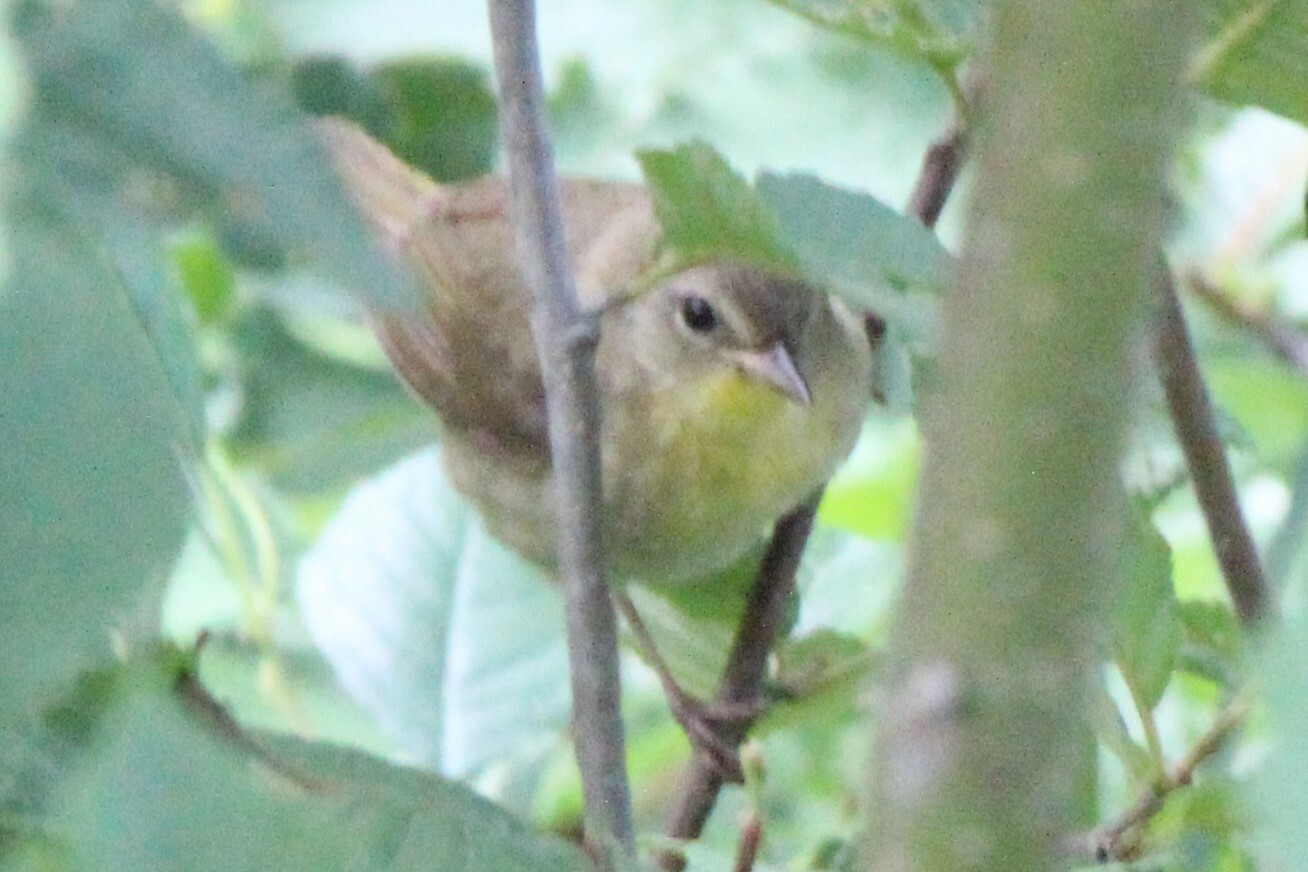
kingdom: Animalia
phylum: Chordata
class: Aves
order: Passeriformes
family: Parulidae
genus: Geothlypis
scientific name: Geothlypis trichas
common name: Common yellowthroat
